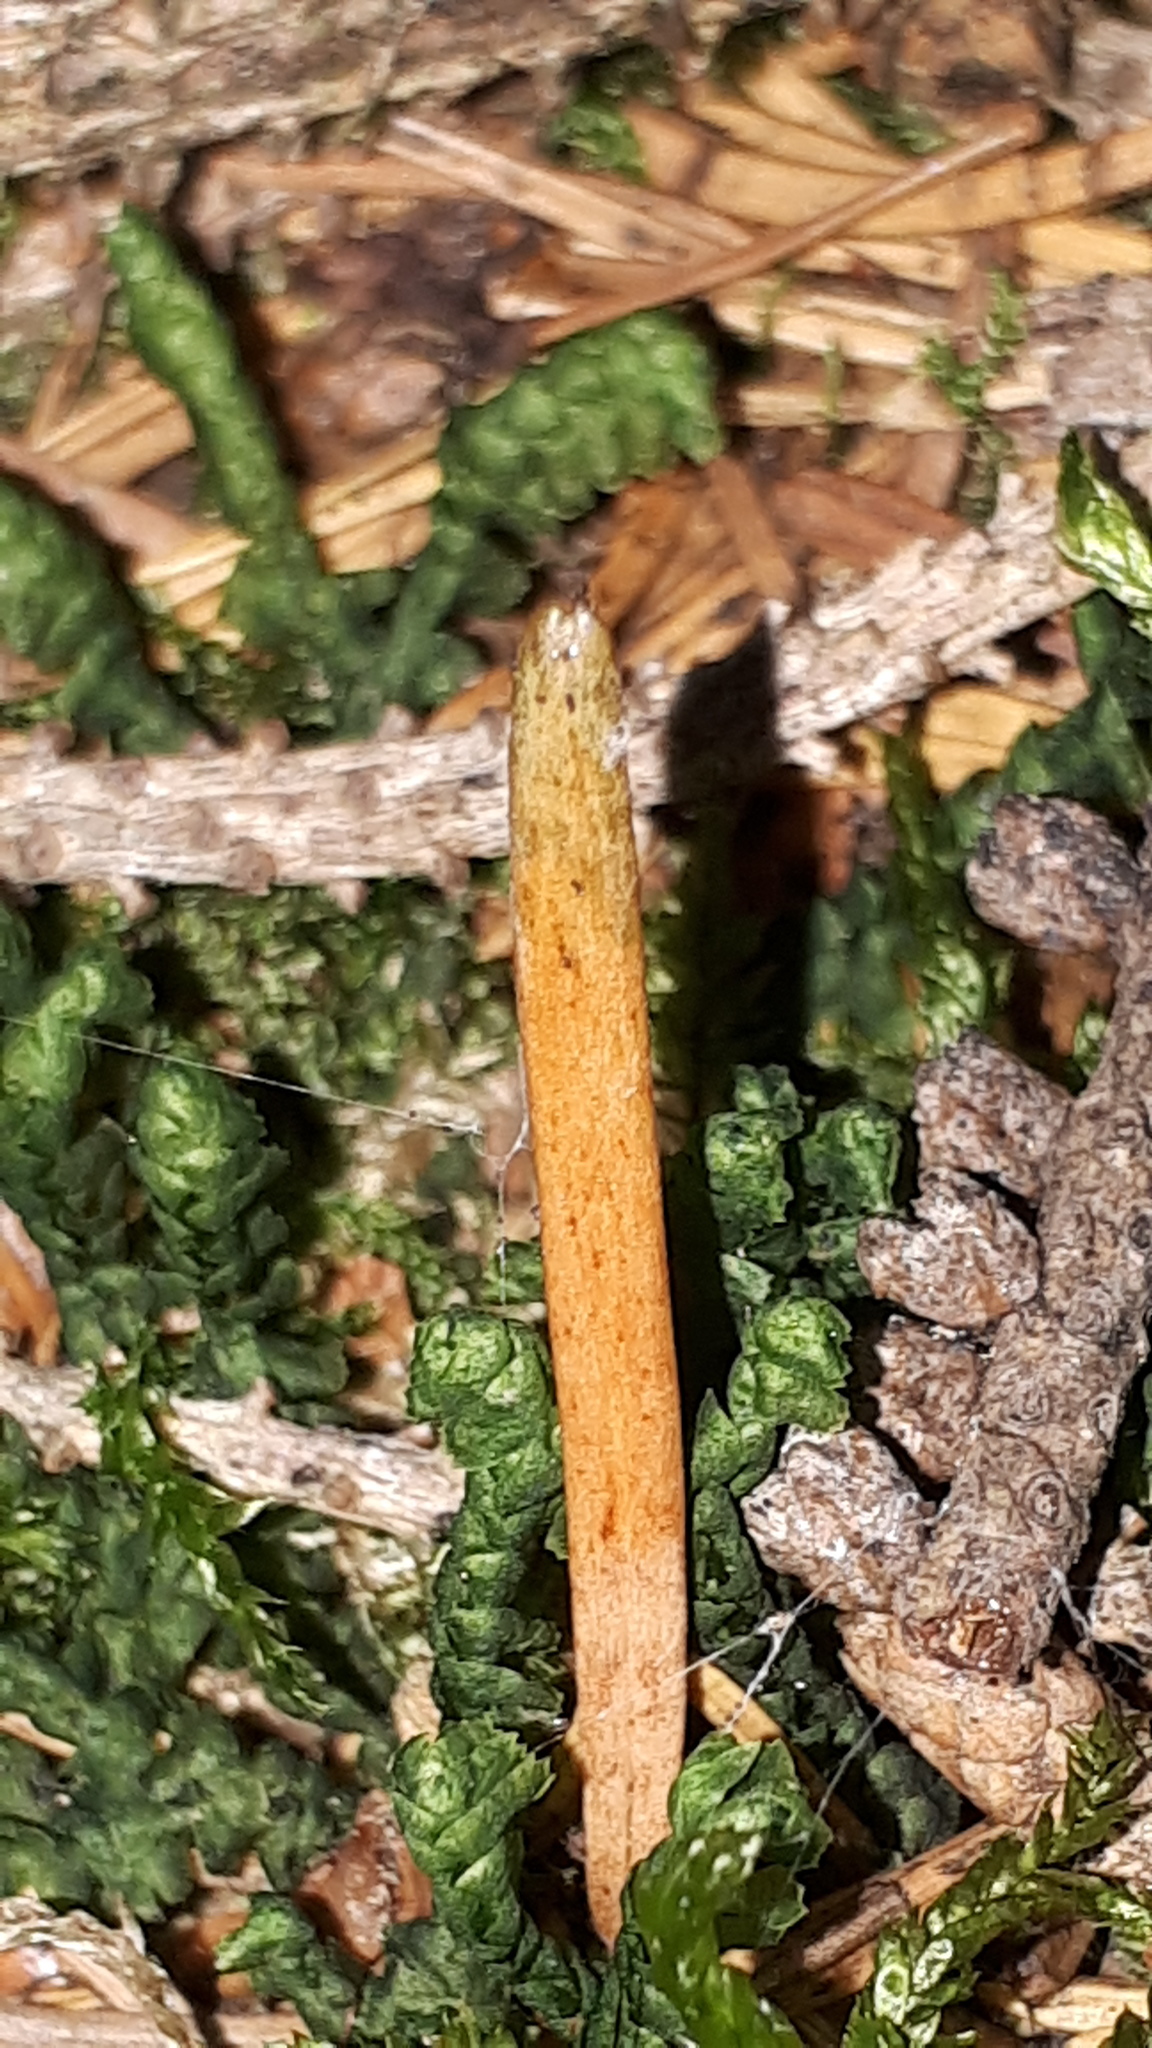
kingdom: Fungi
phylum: Ascomycota
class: Sordariomycetes
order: Hypocreales
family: Ophiocordycipitaceae
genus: Tolypocladium
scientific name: Tolypocladium ophioglossoides
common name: Snaketongue truffleclub
